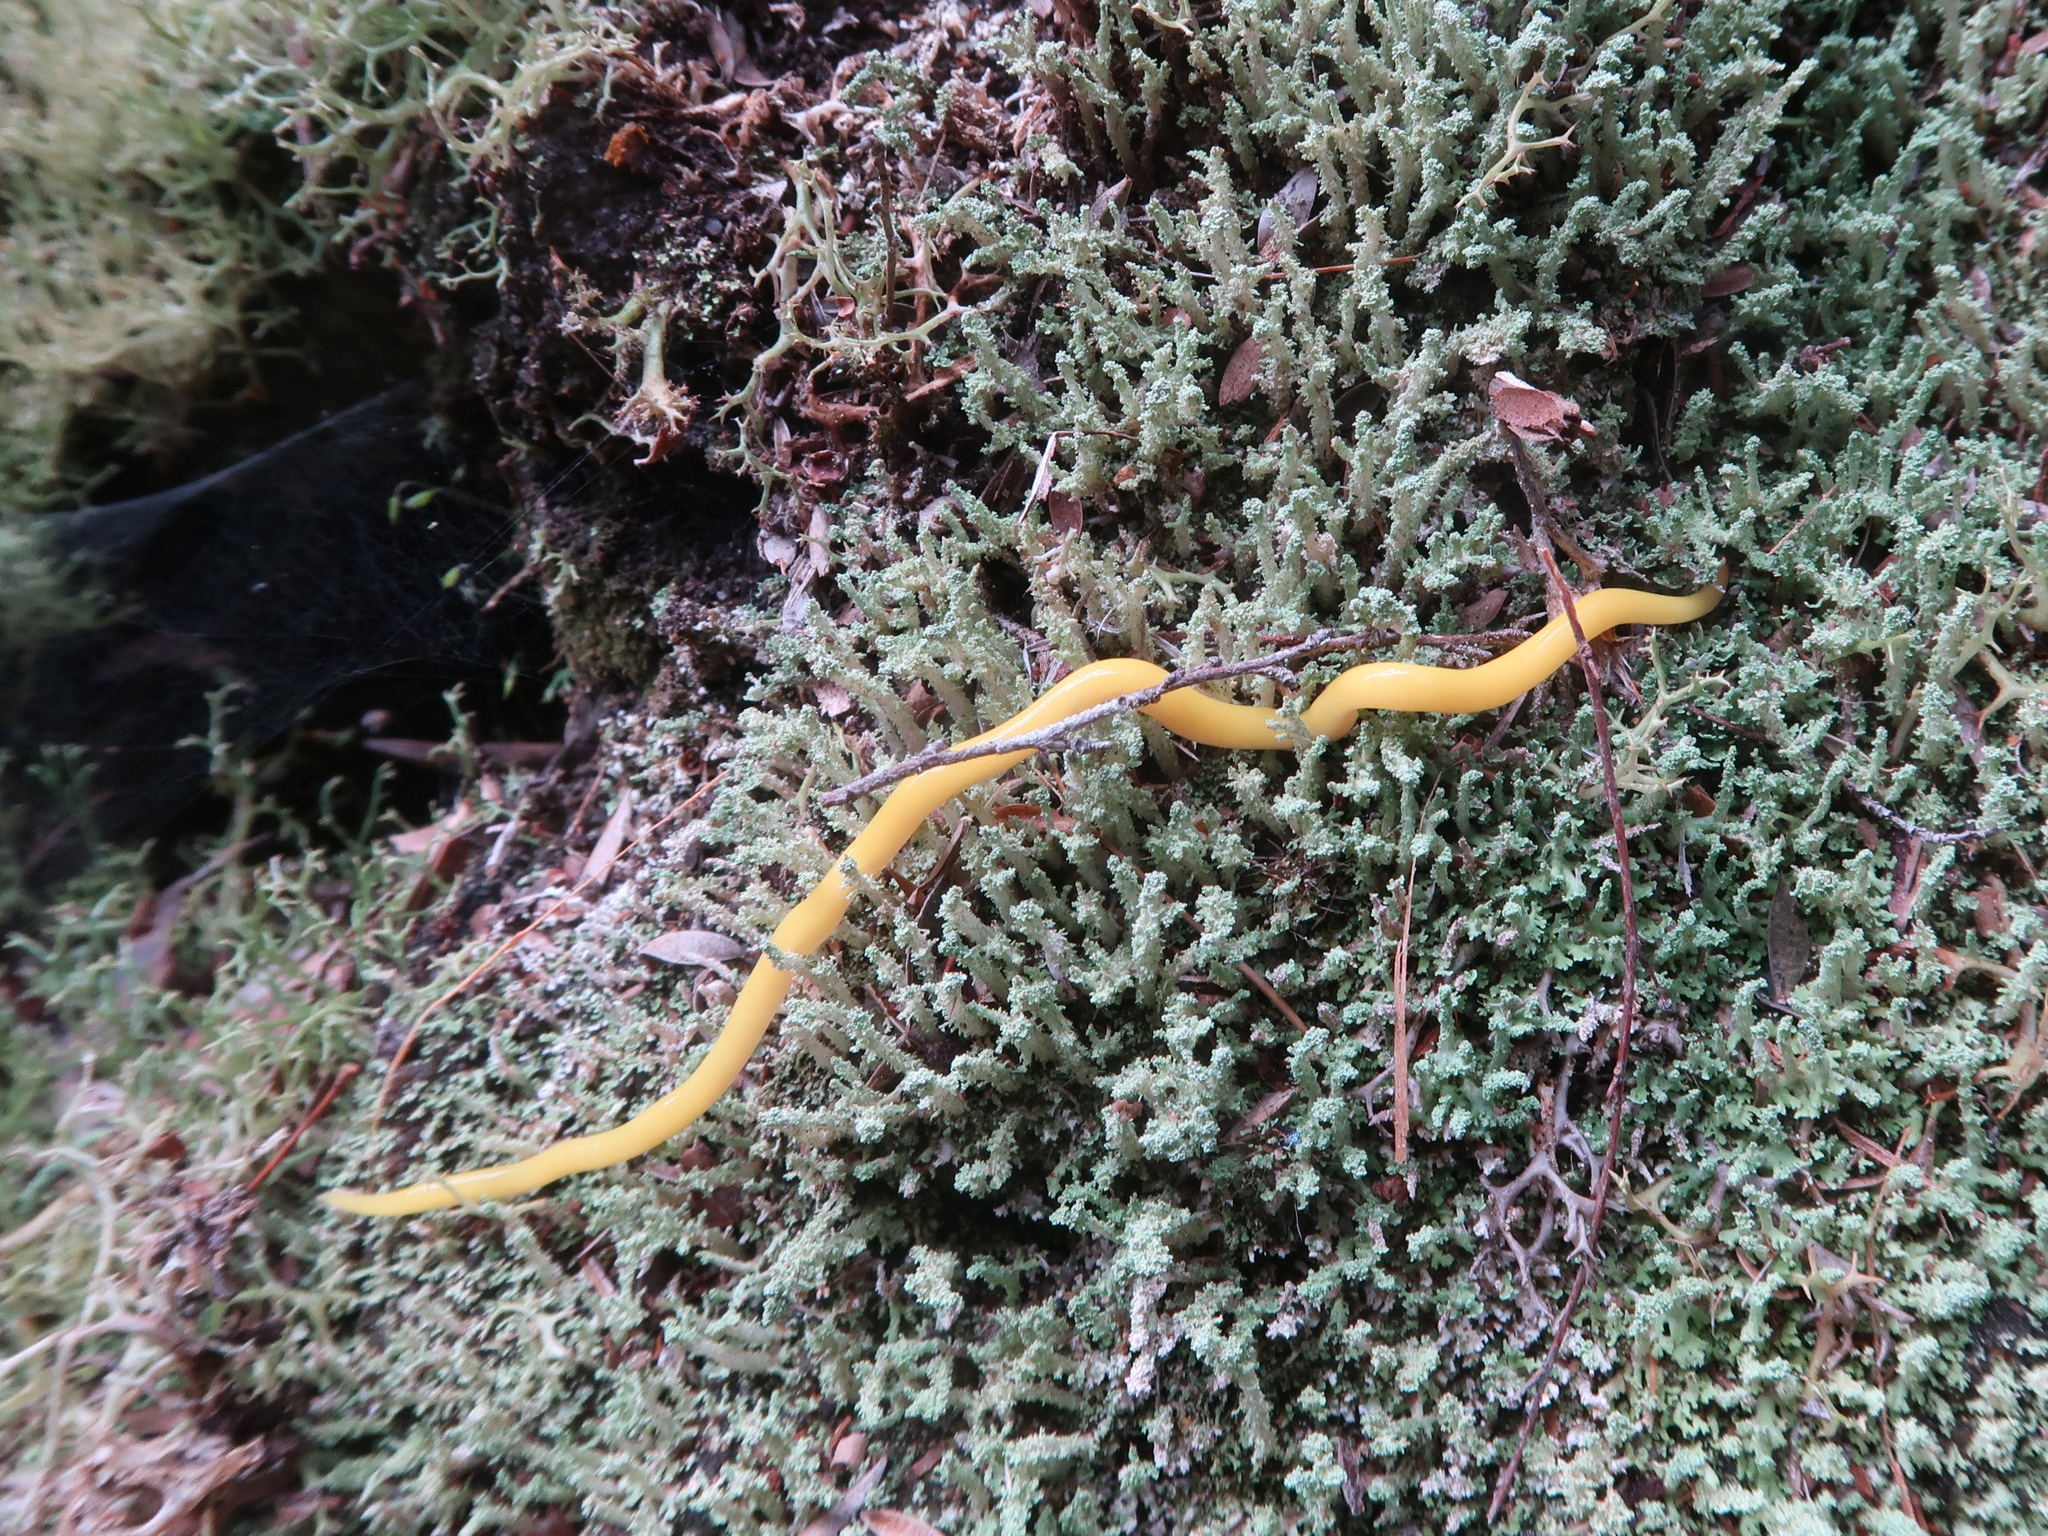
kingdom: Animalia
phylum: Platyhelminthes
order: Tricladida
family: Geoplanidae
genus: Fletchamia
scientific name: Fletchamia sugdeni
